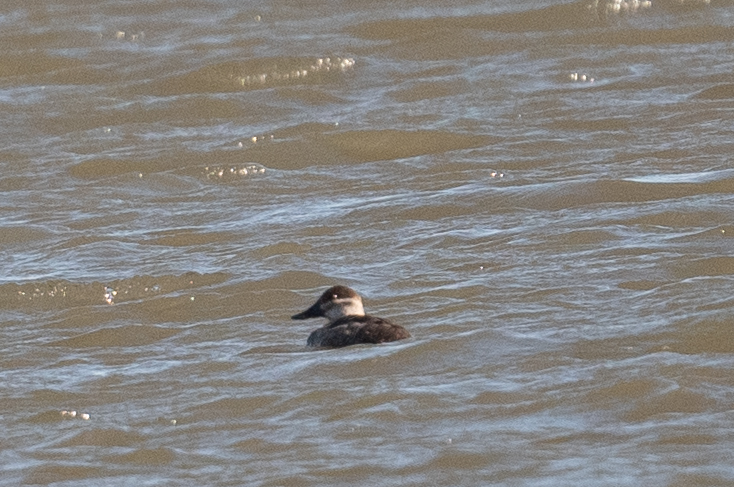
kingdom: Animalia
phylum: Chordata
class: Aves
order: Anseriformes
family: Anatidae
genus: Oxyura
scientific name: Oxyura jamaicensis
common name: Ruddy duck
